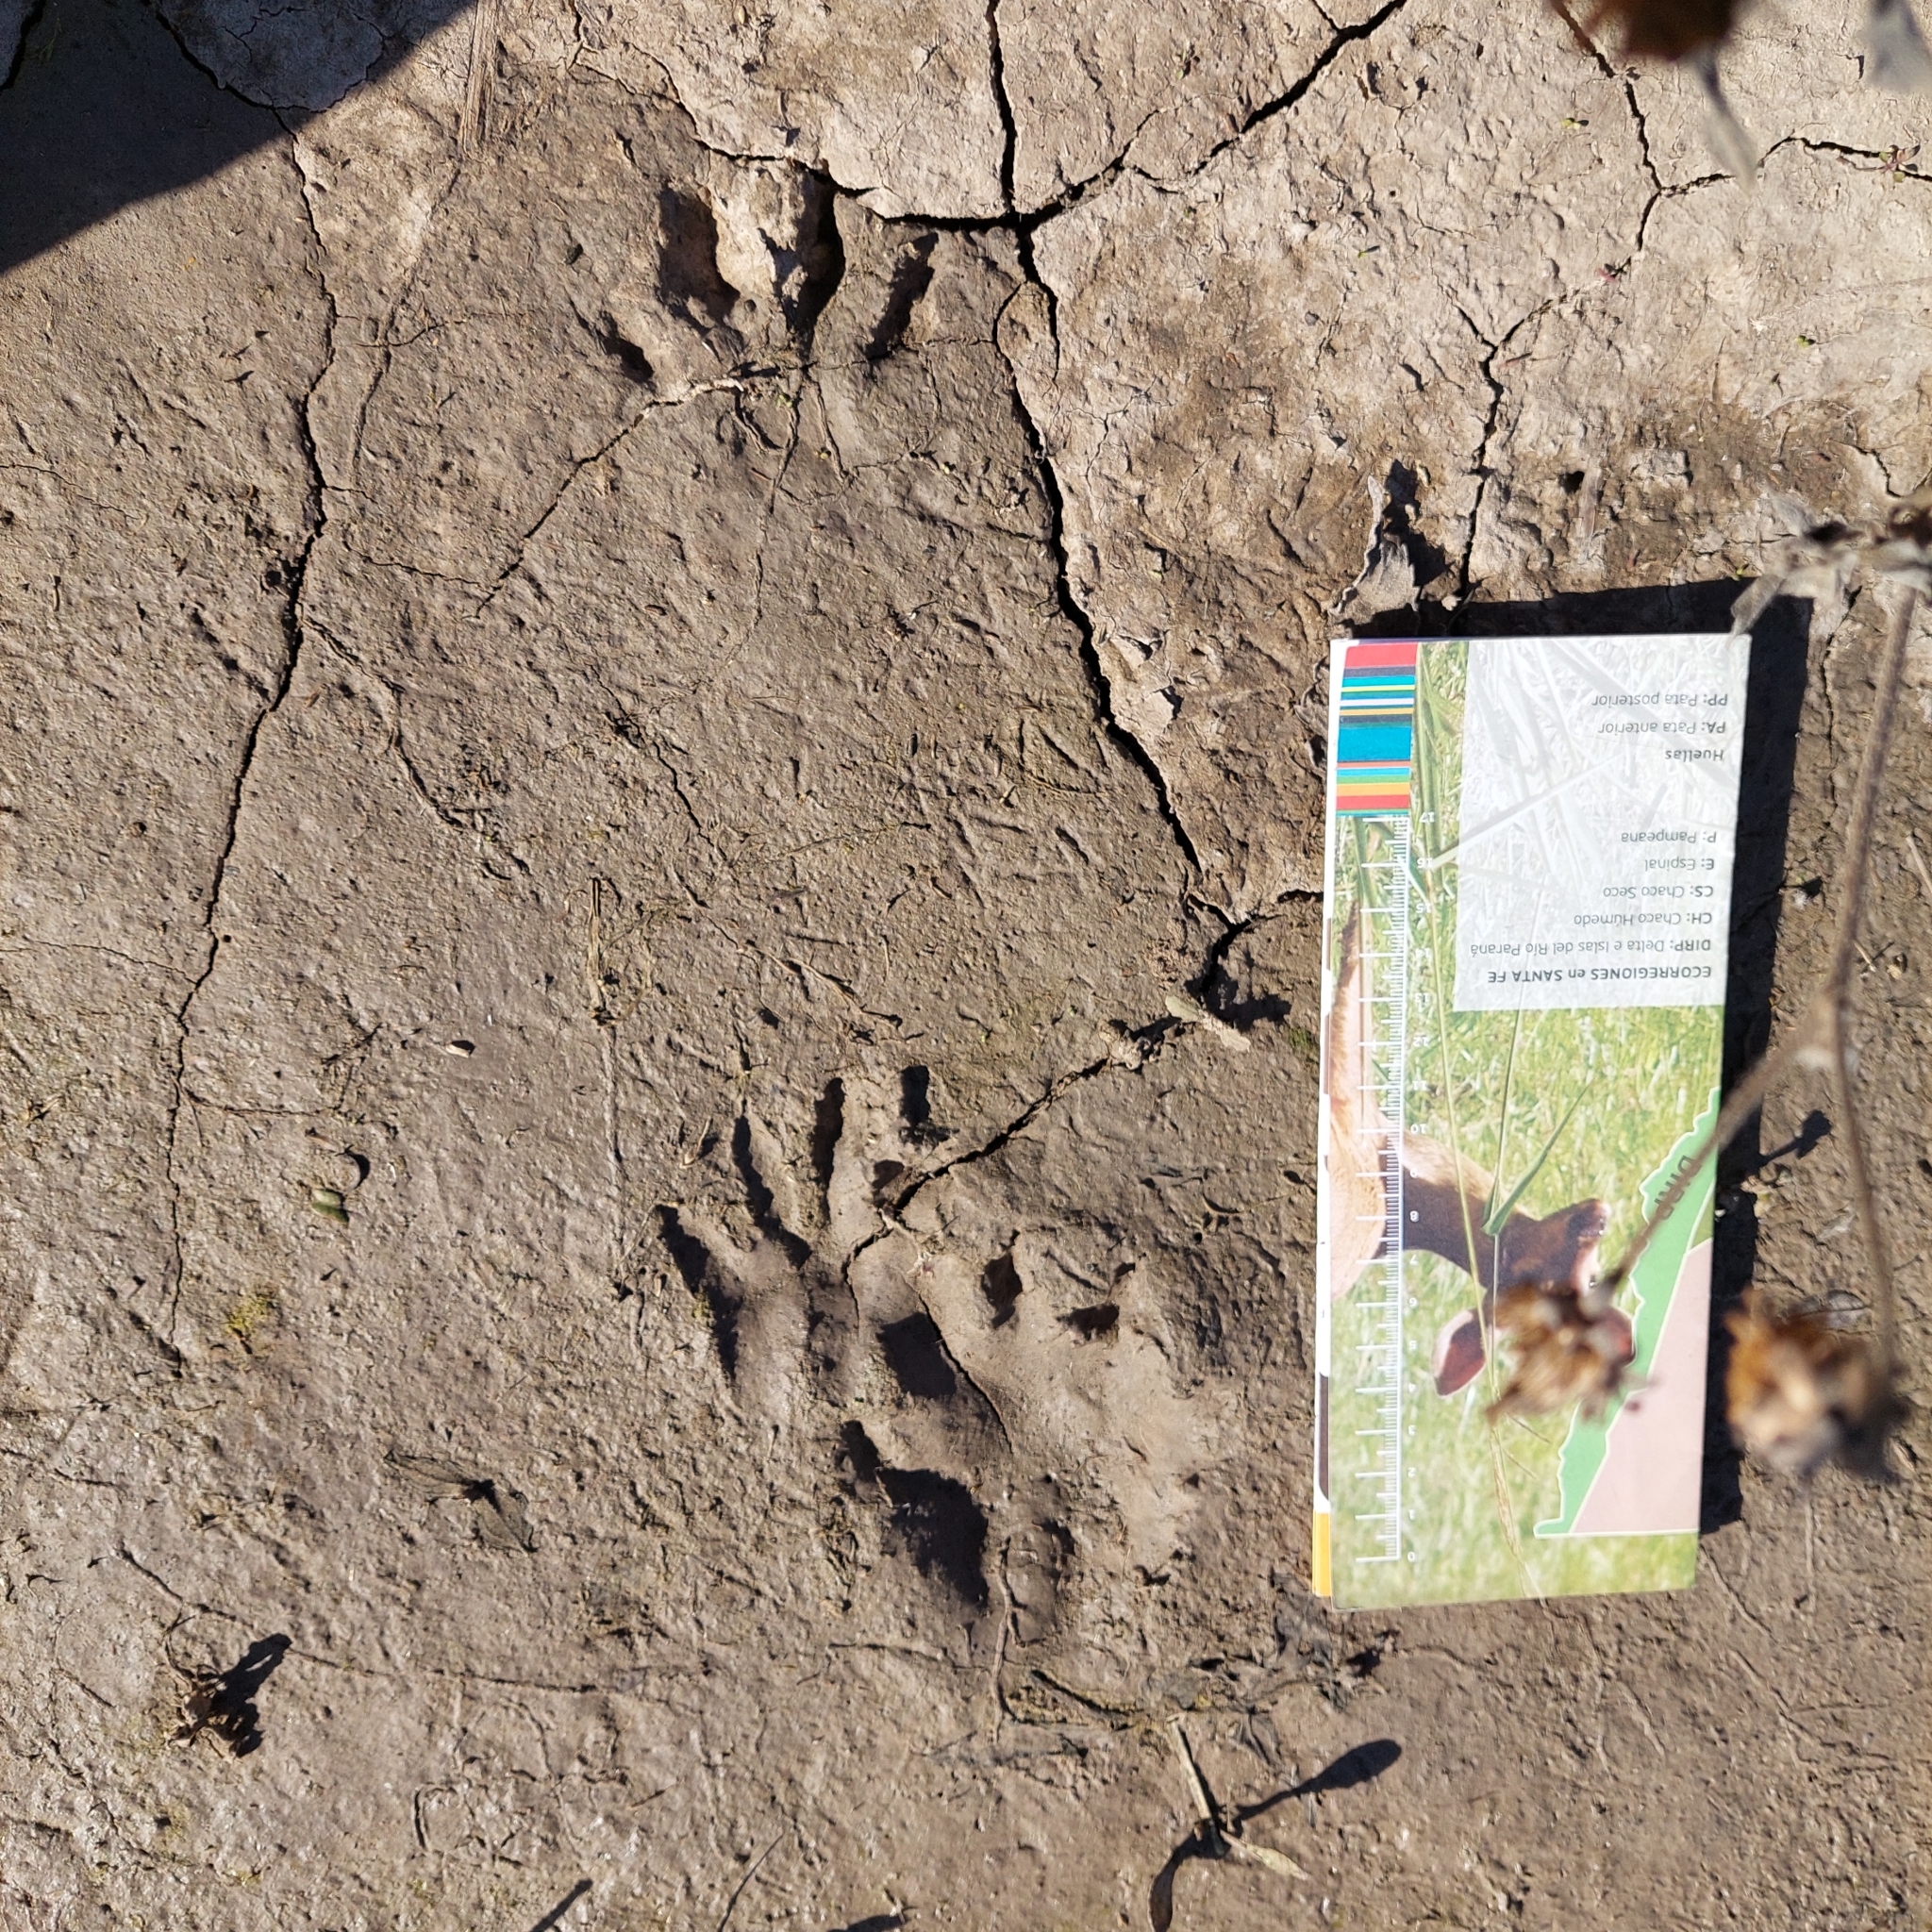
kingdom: Animalia
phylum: Chordata
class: Mammalia
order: Carnivora
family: Procyonidae
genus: Procyon
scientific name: Procyon cancrivorus
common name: Crab-eating raccoon
